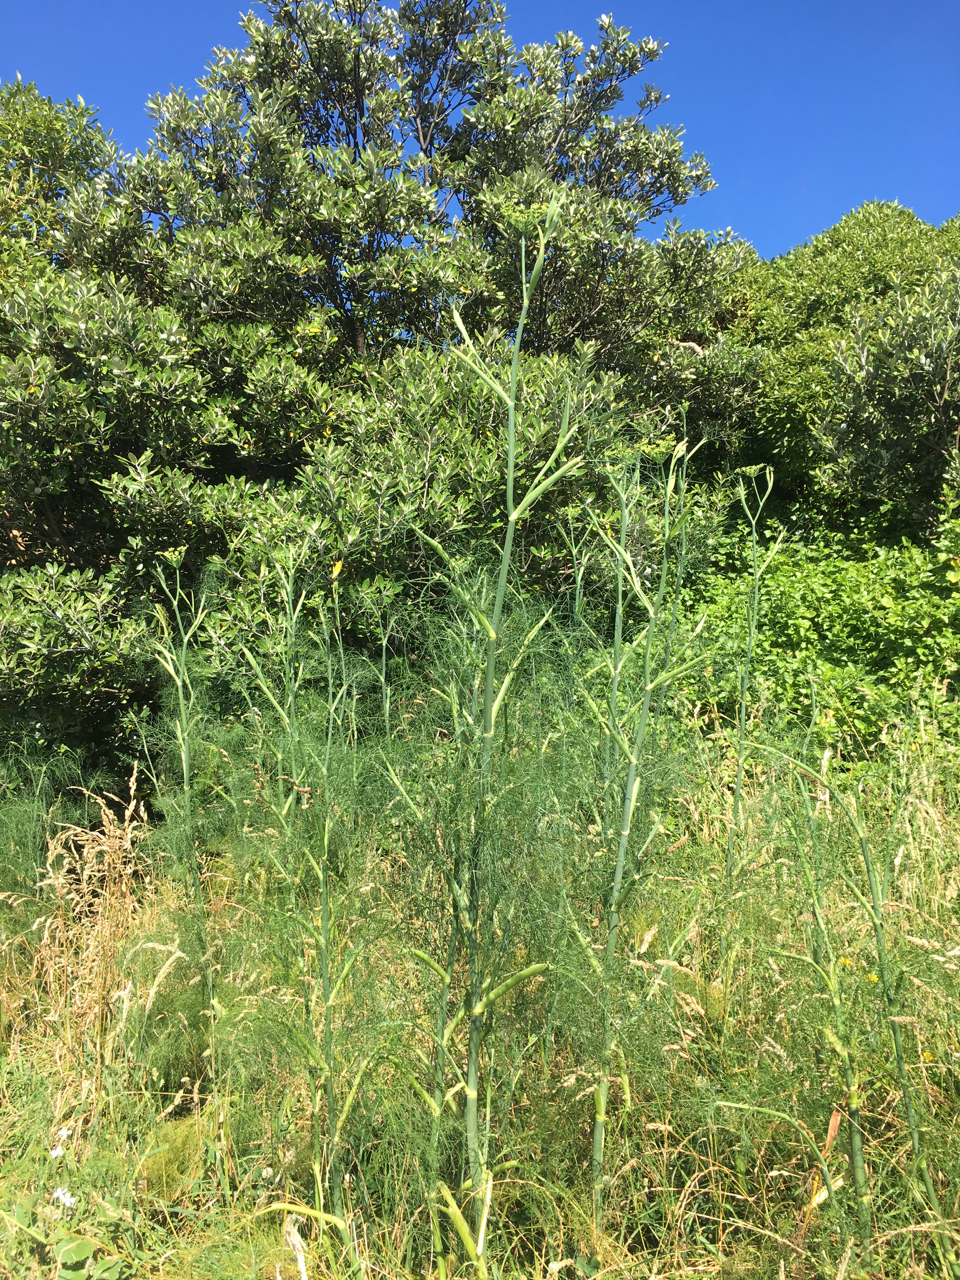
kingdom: Plantae
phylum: Tracheophyta
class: Magnoliopsida
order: Apiales
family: Apiaceae
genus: Foeniculum
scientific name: Foeniculum vulgare
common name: Fennel
